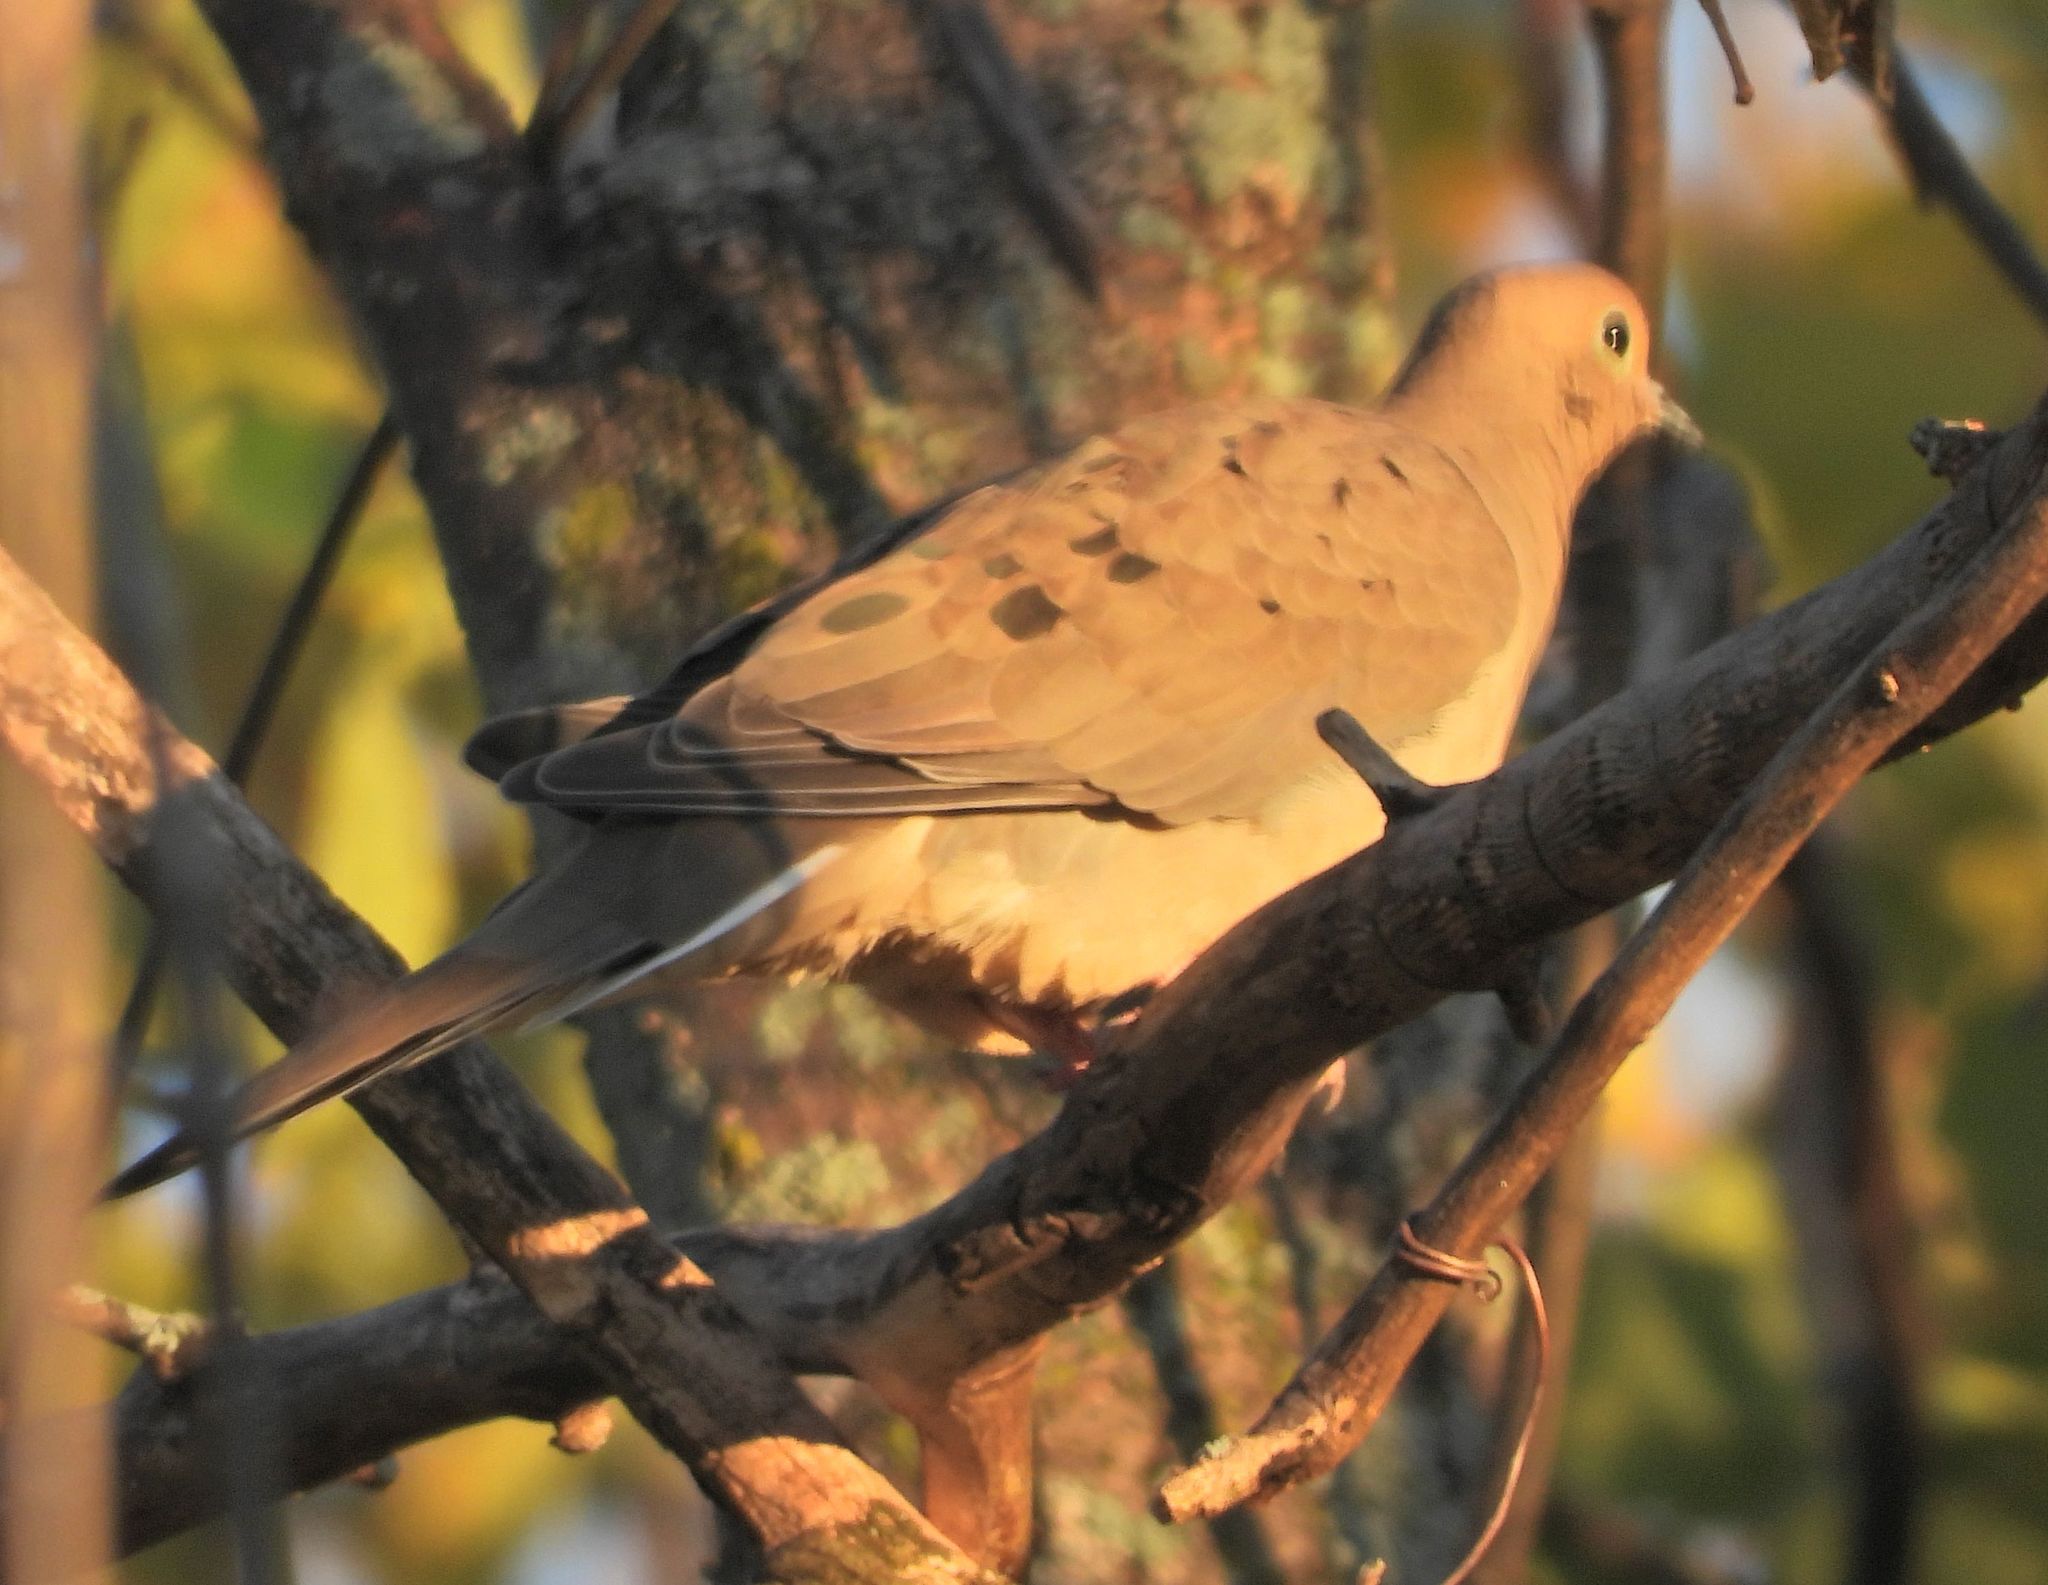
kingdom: Animalia
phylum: Chordata
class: Aves
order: Columbiformes
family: Columbidae
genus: Zenaida
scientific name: Zenaida macroura
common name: Mourning dove
